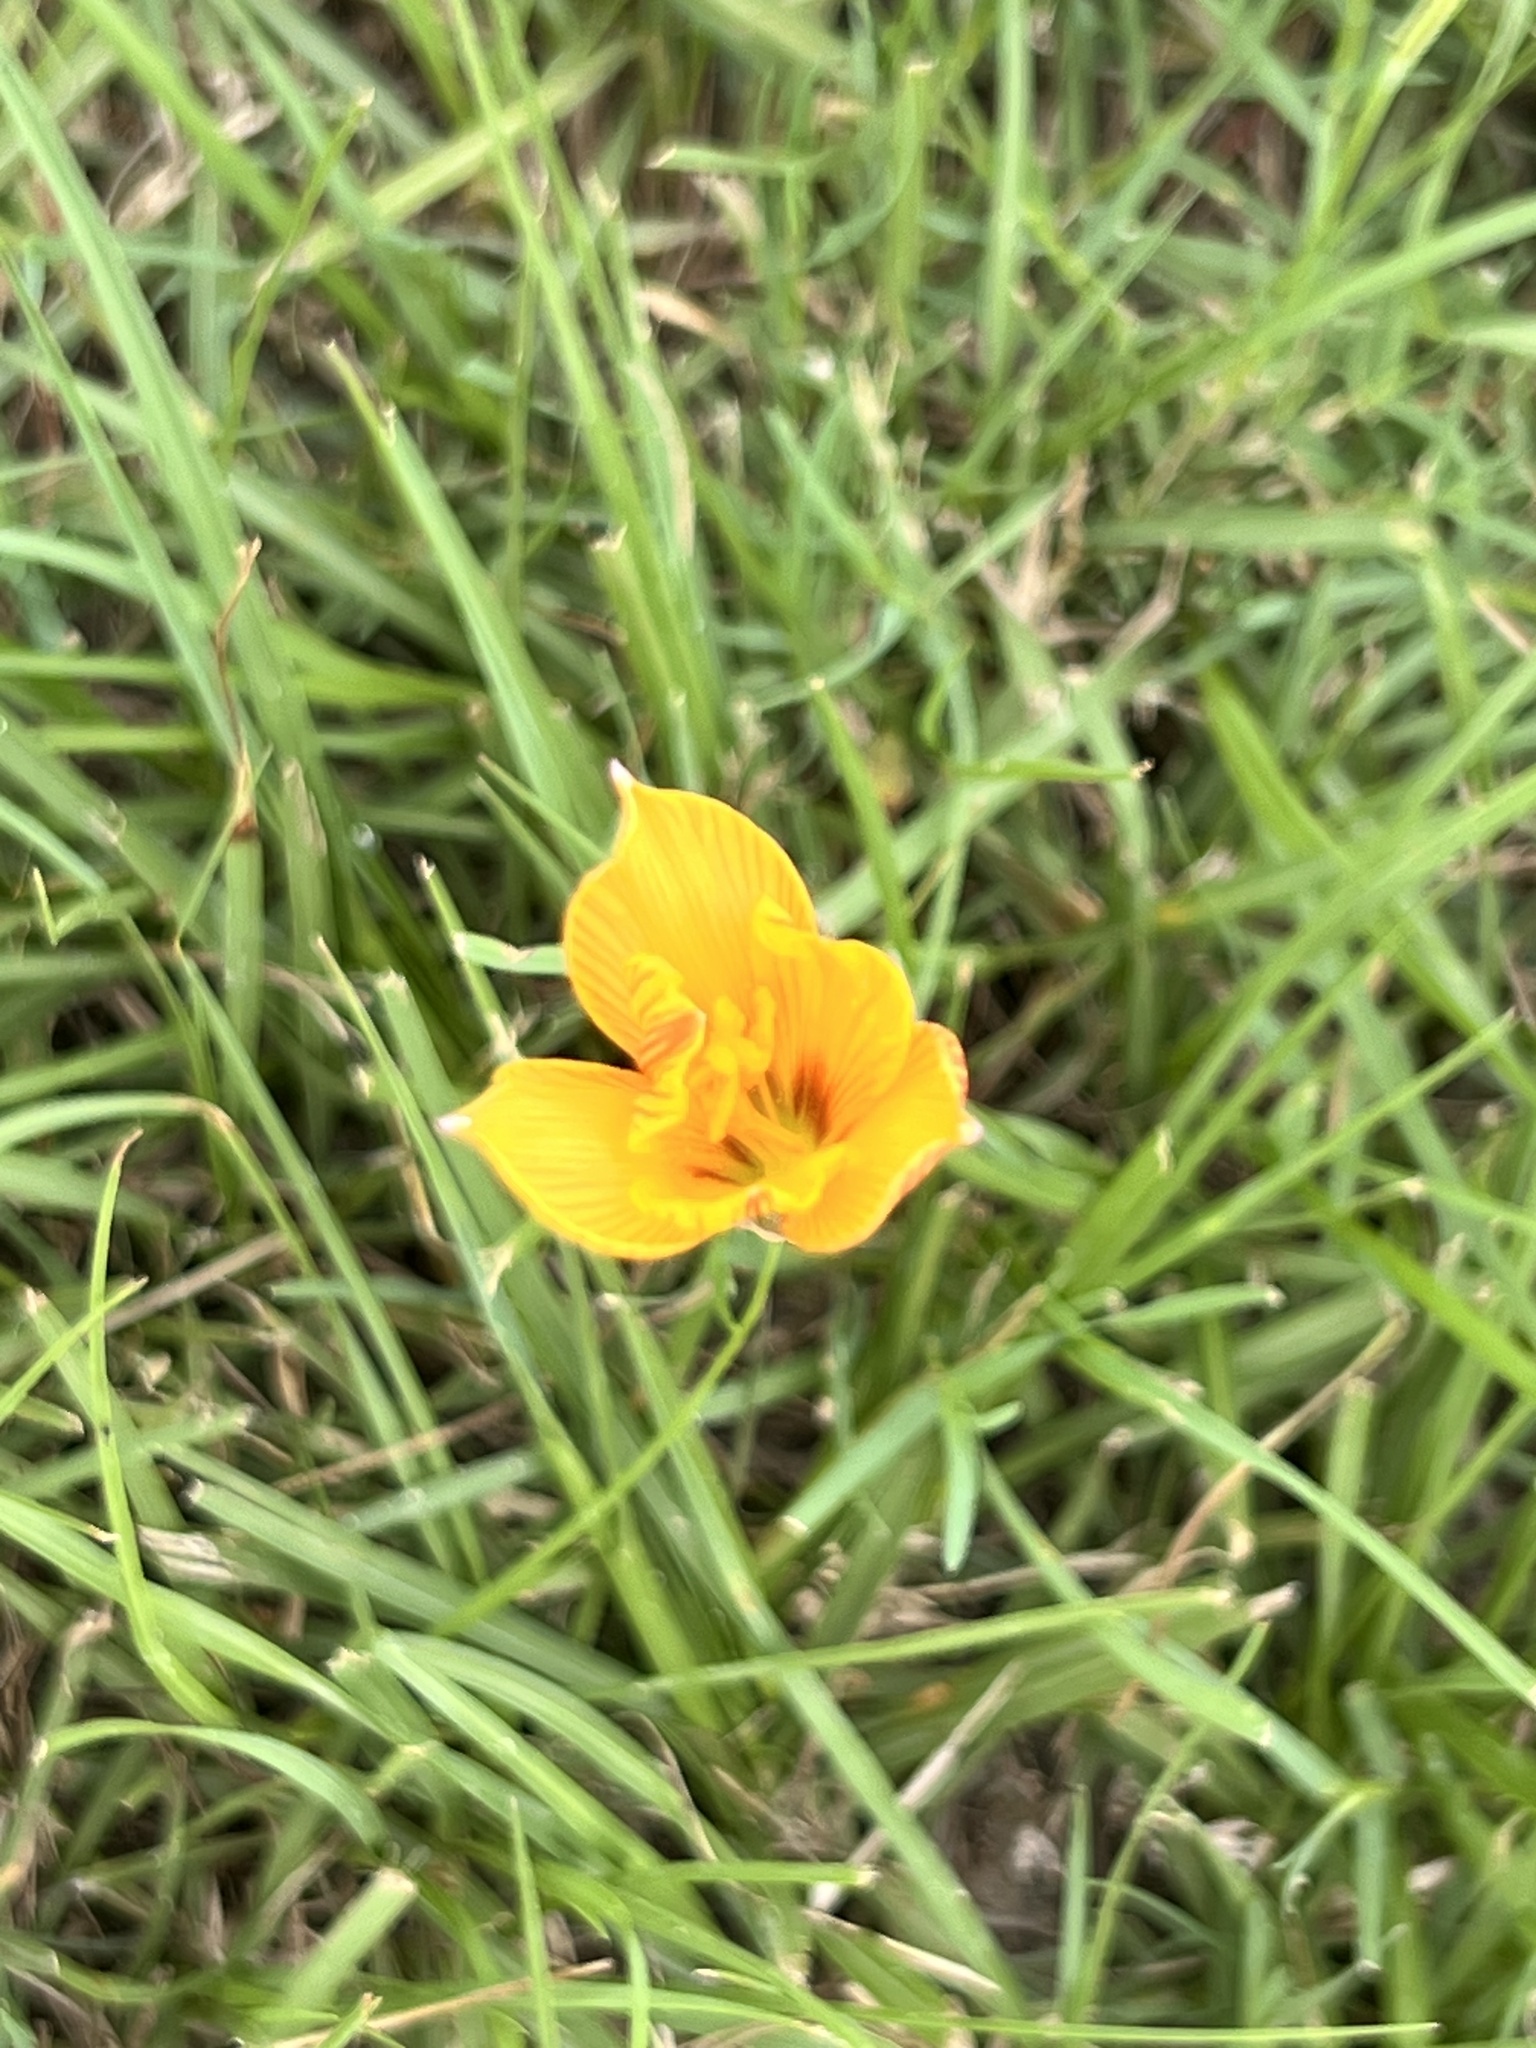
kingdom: Plantae
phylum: Tracheophyta
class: Liliopsida
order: Asparagales
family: Amaryllidaceae
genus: Zephyranthes
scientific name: Zephyranthes tubispatha
